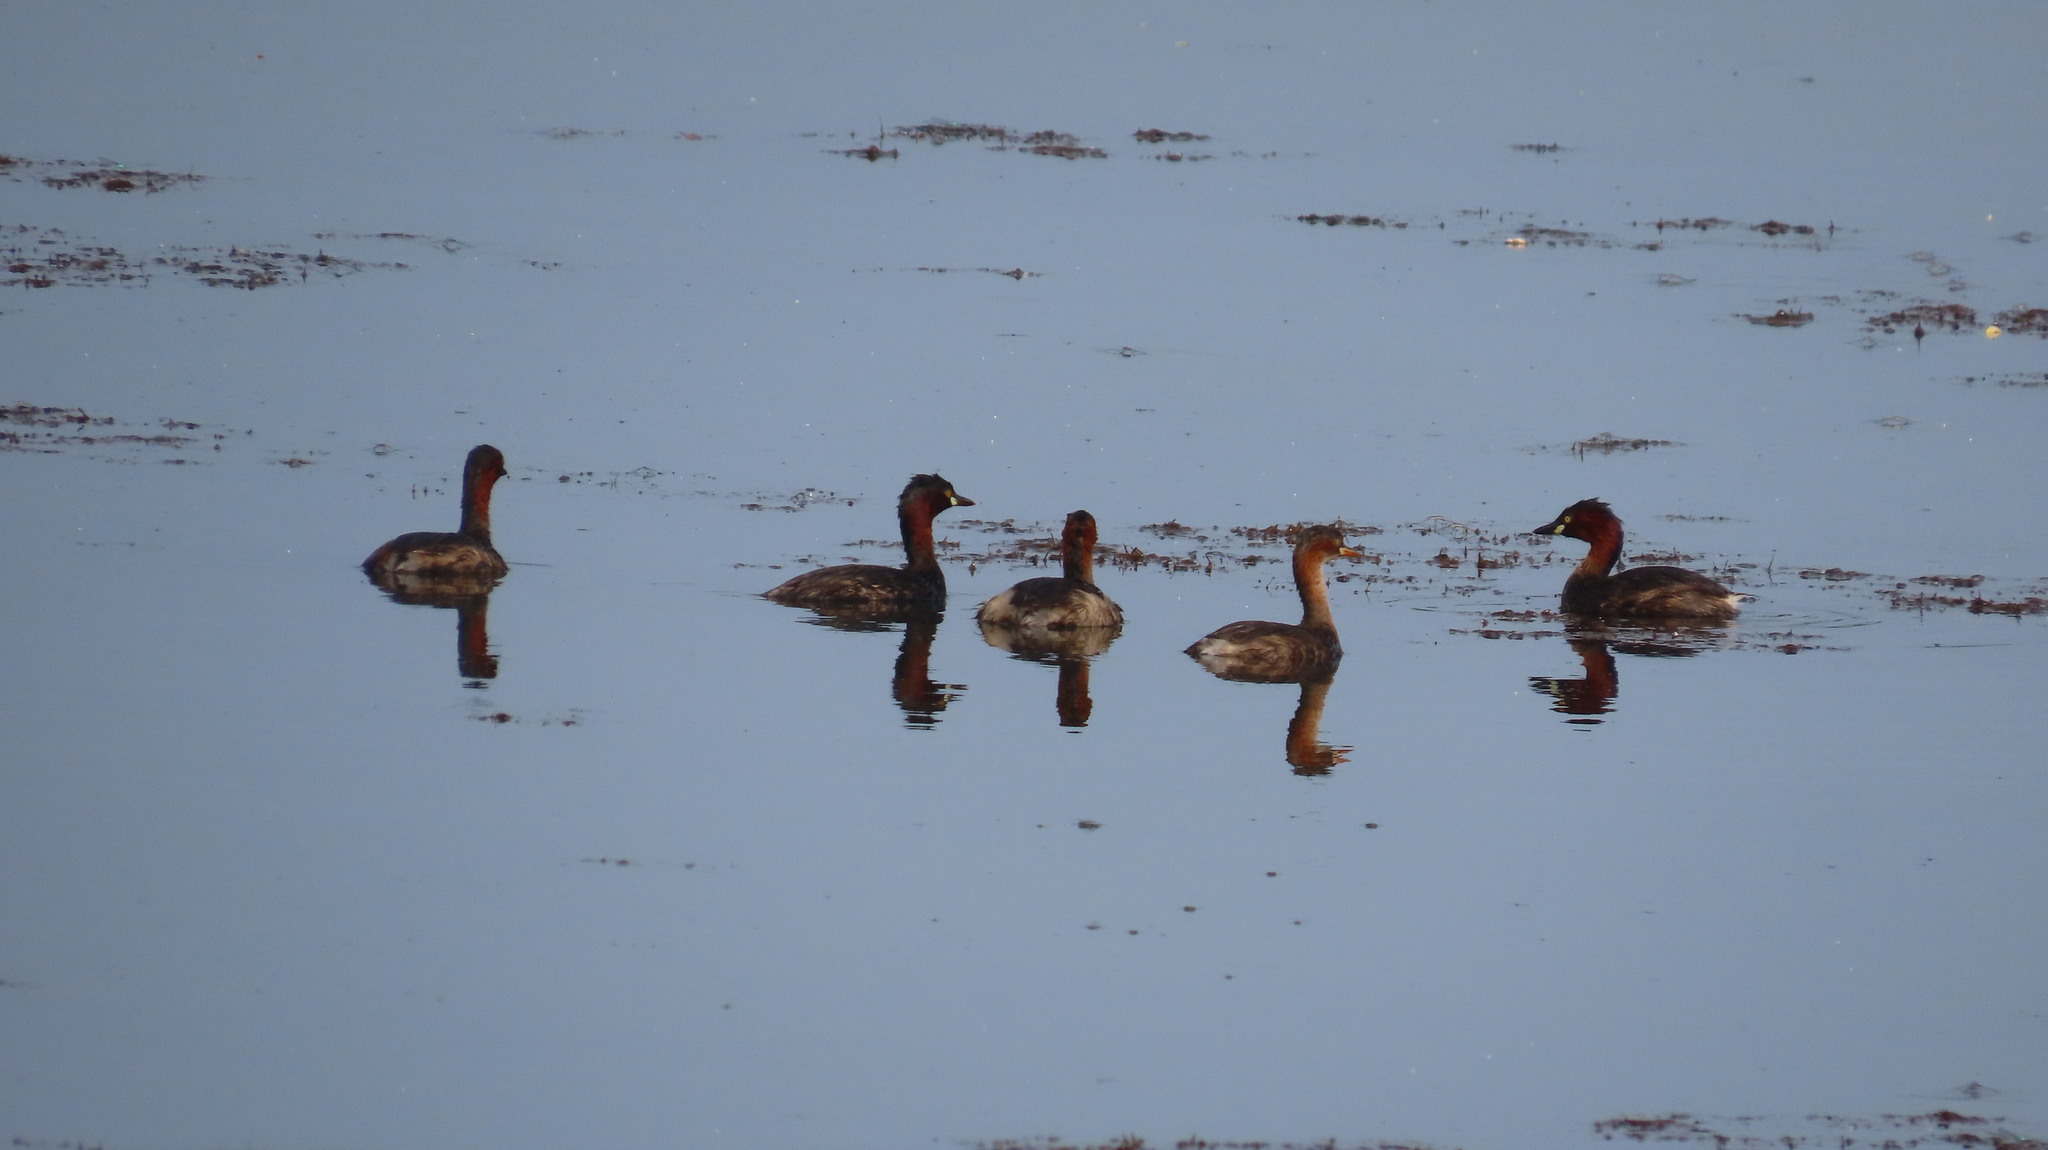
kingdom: Animalia
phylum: Chordata
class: Aves
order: Podicipediformes
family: Podicipedidae
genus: Tachybaptus
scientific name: Tachybaptus ruficollis
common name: Little grebe
